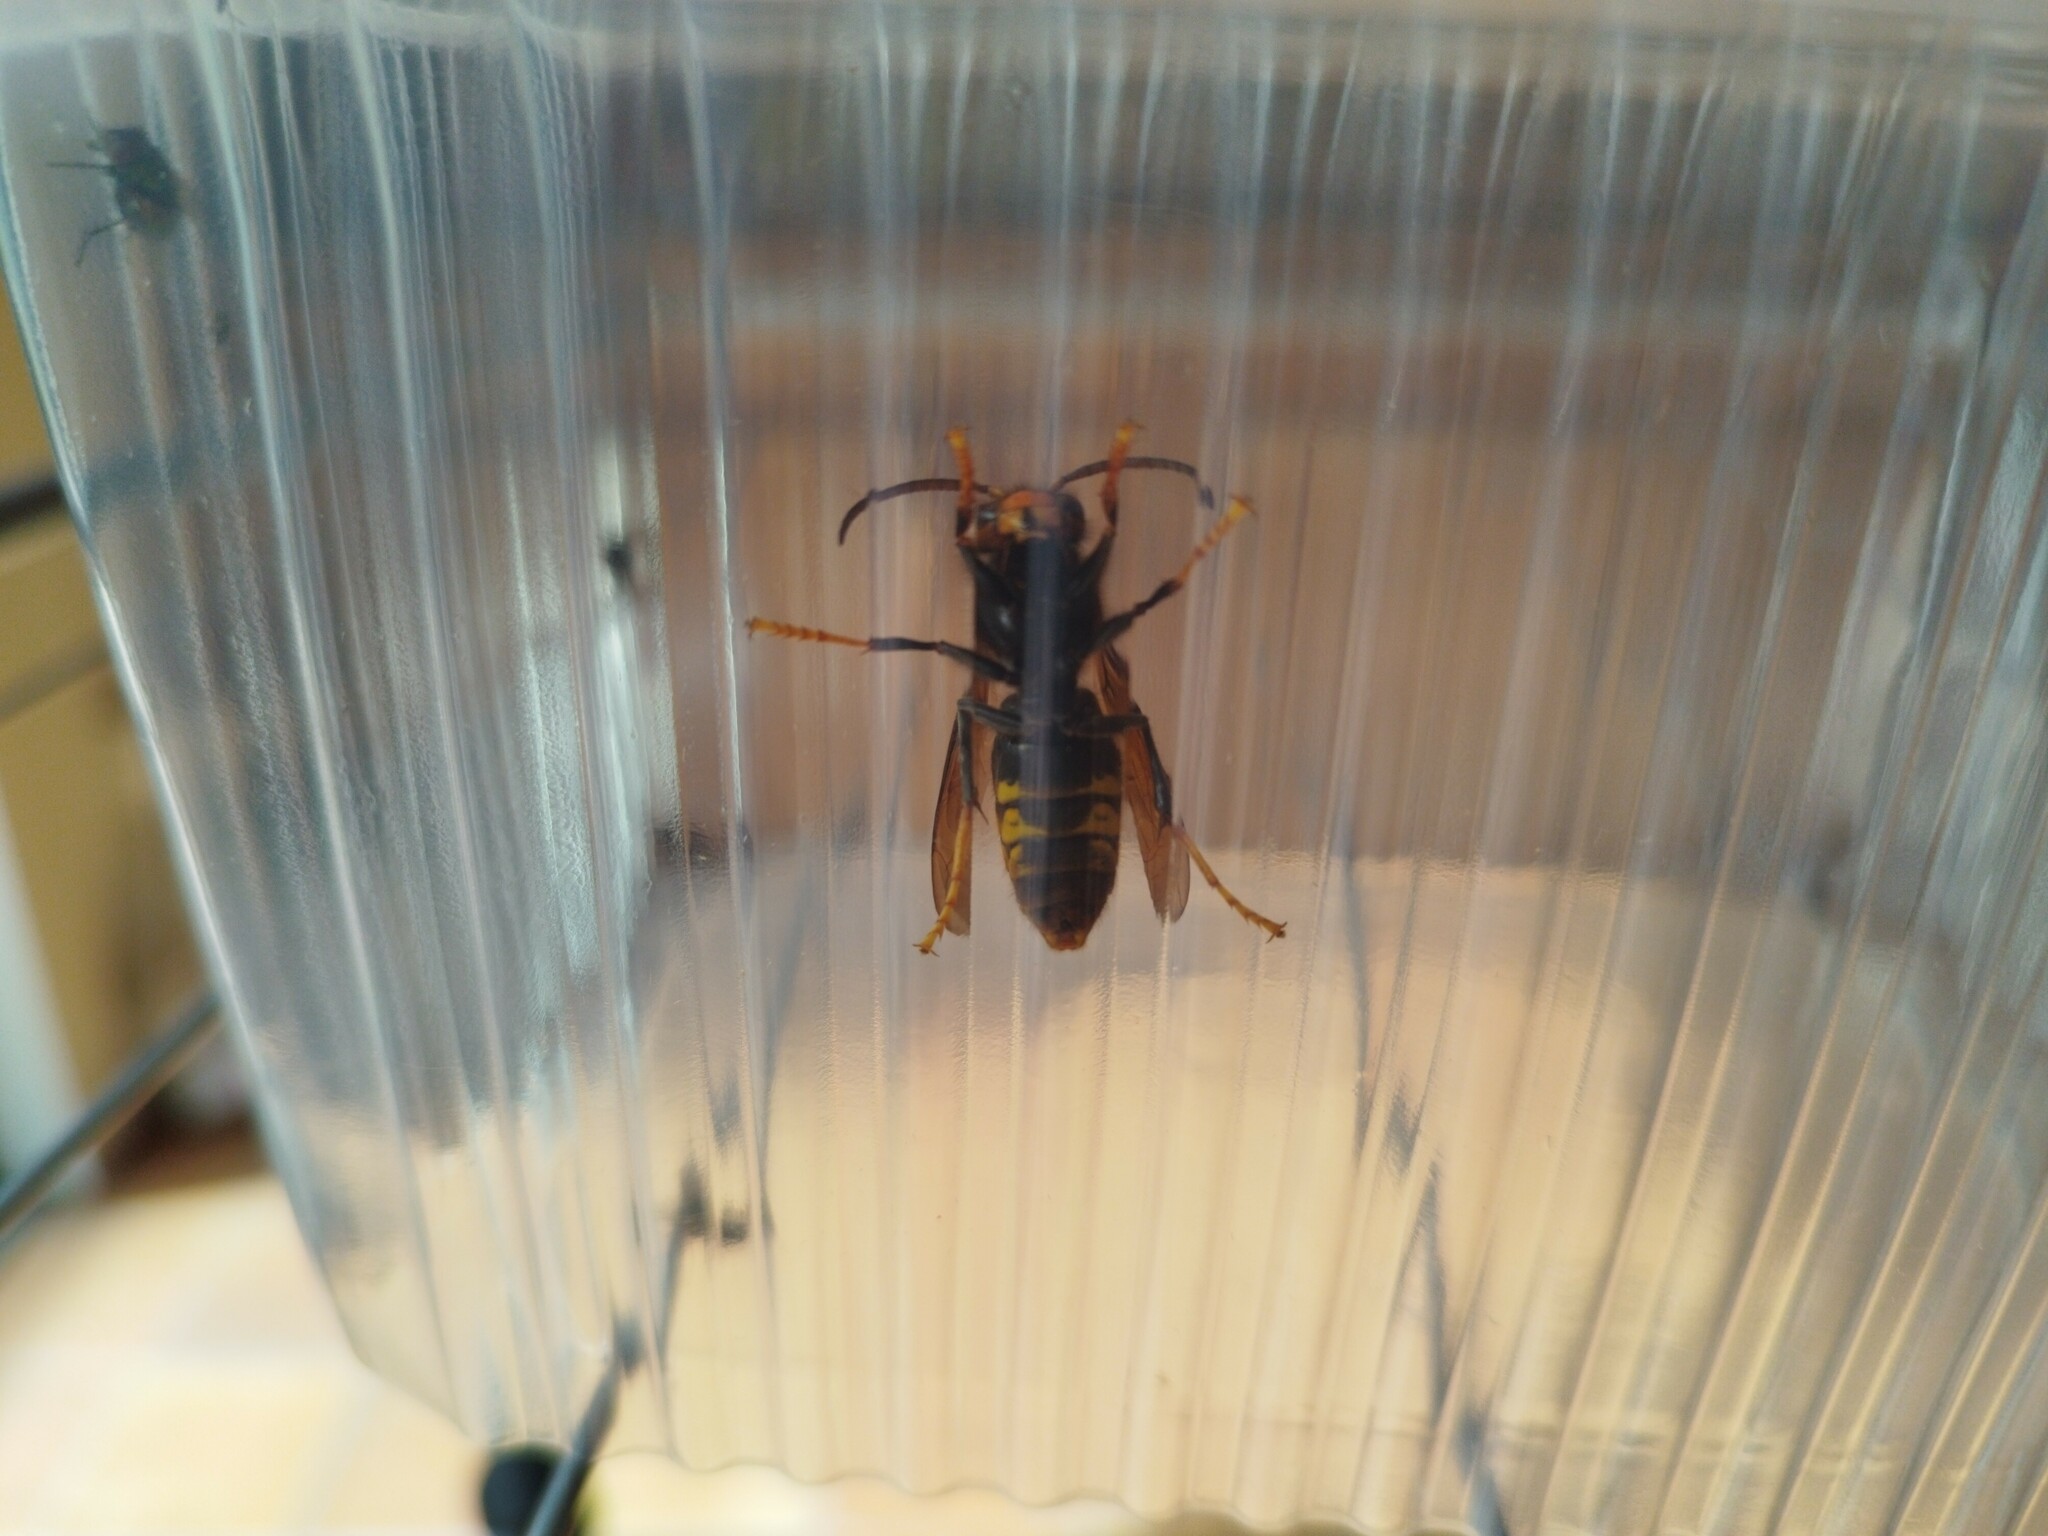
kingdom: Animalia
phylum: Arthropoda
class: Insecta
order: Hymenoptera
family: Vespidae
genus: Vespa
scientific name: Vespa velutina
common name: Asian hornet
